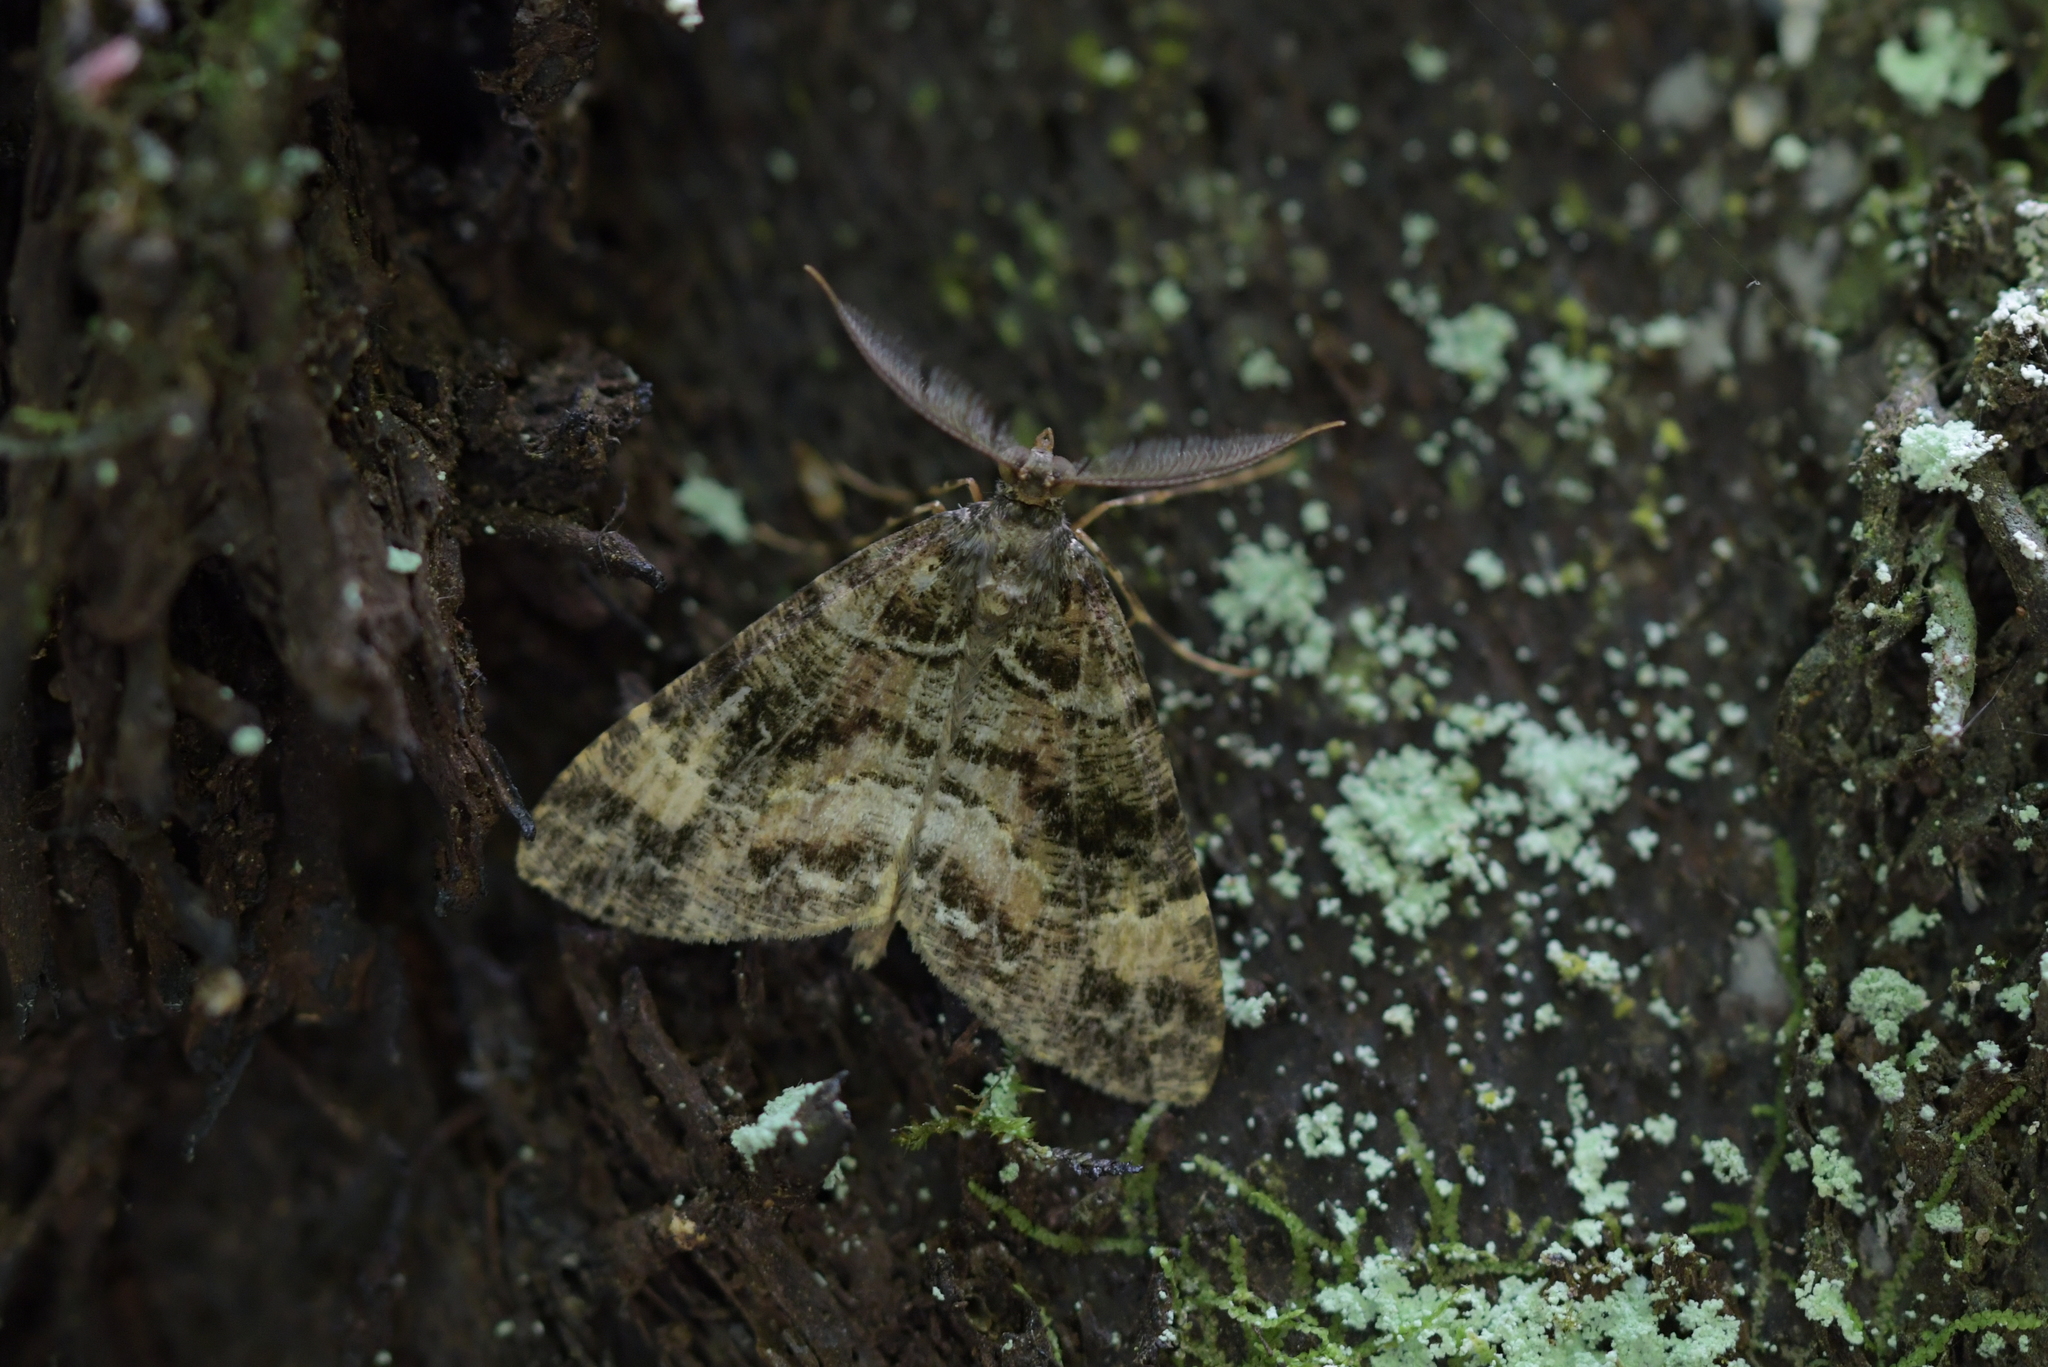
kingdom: Animalia
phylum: Arthropoda
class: Insecta
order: Lepidoptera
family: Geometridae
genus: Pseudocoremia
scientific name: Pseudocoremia productata
